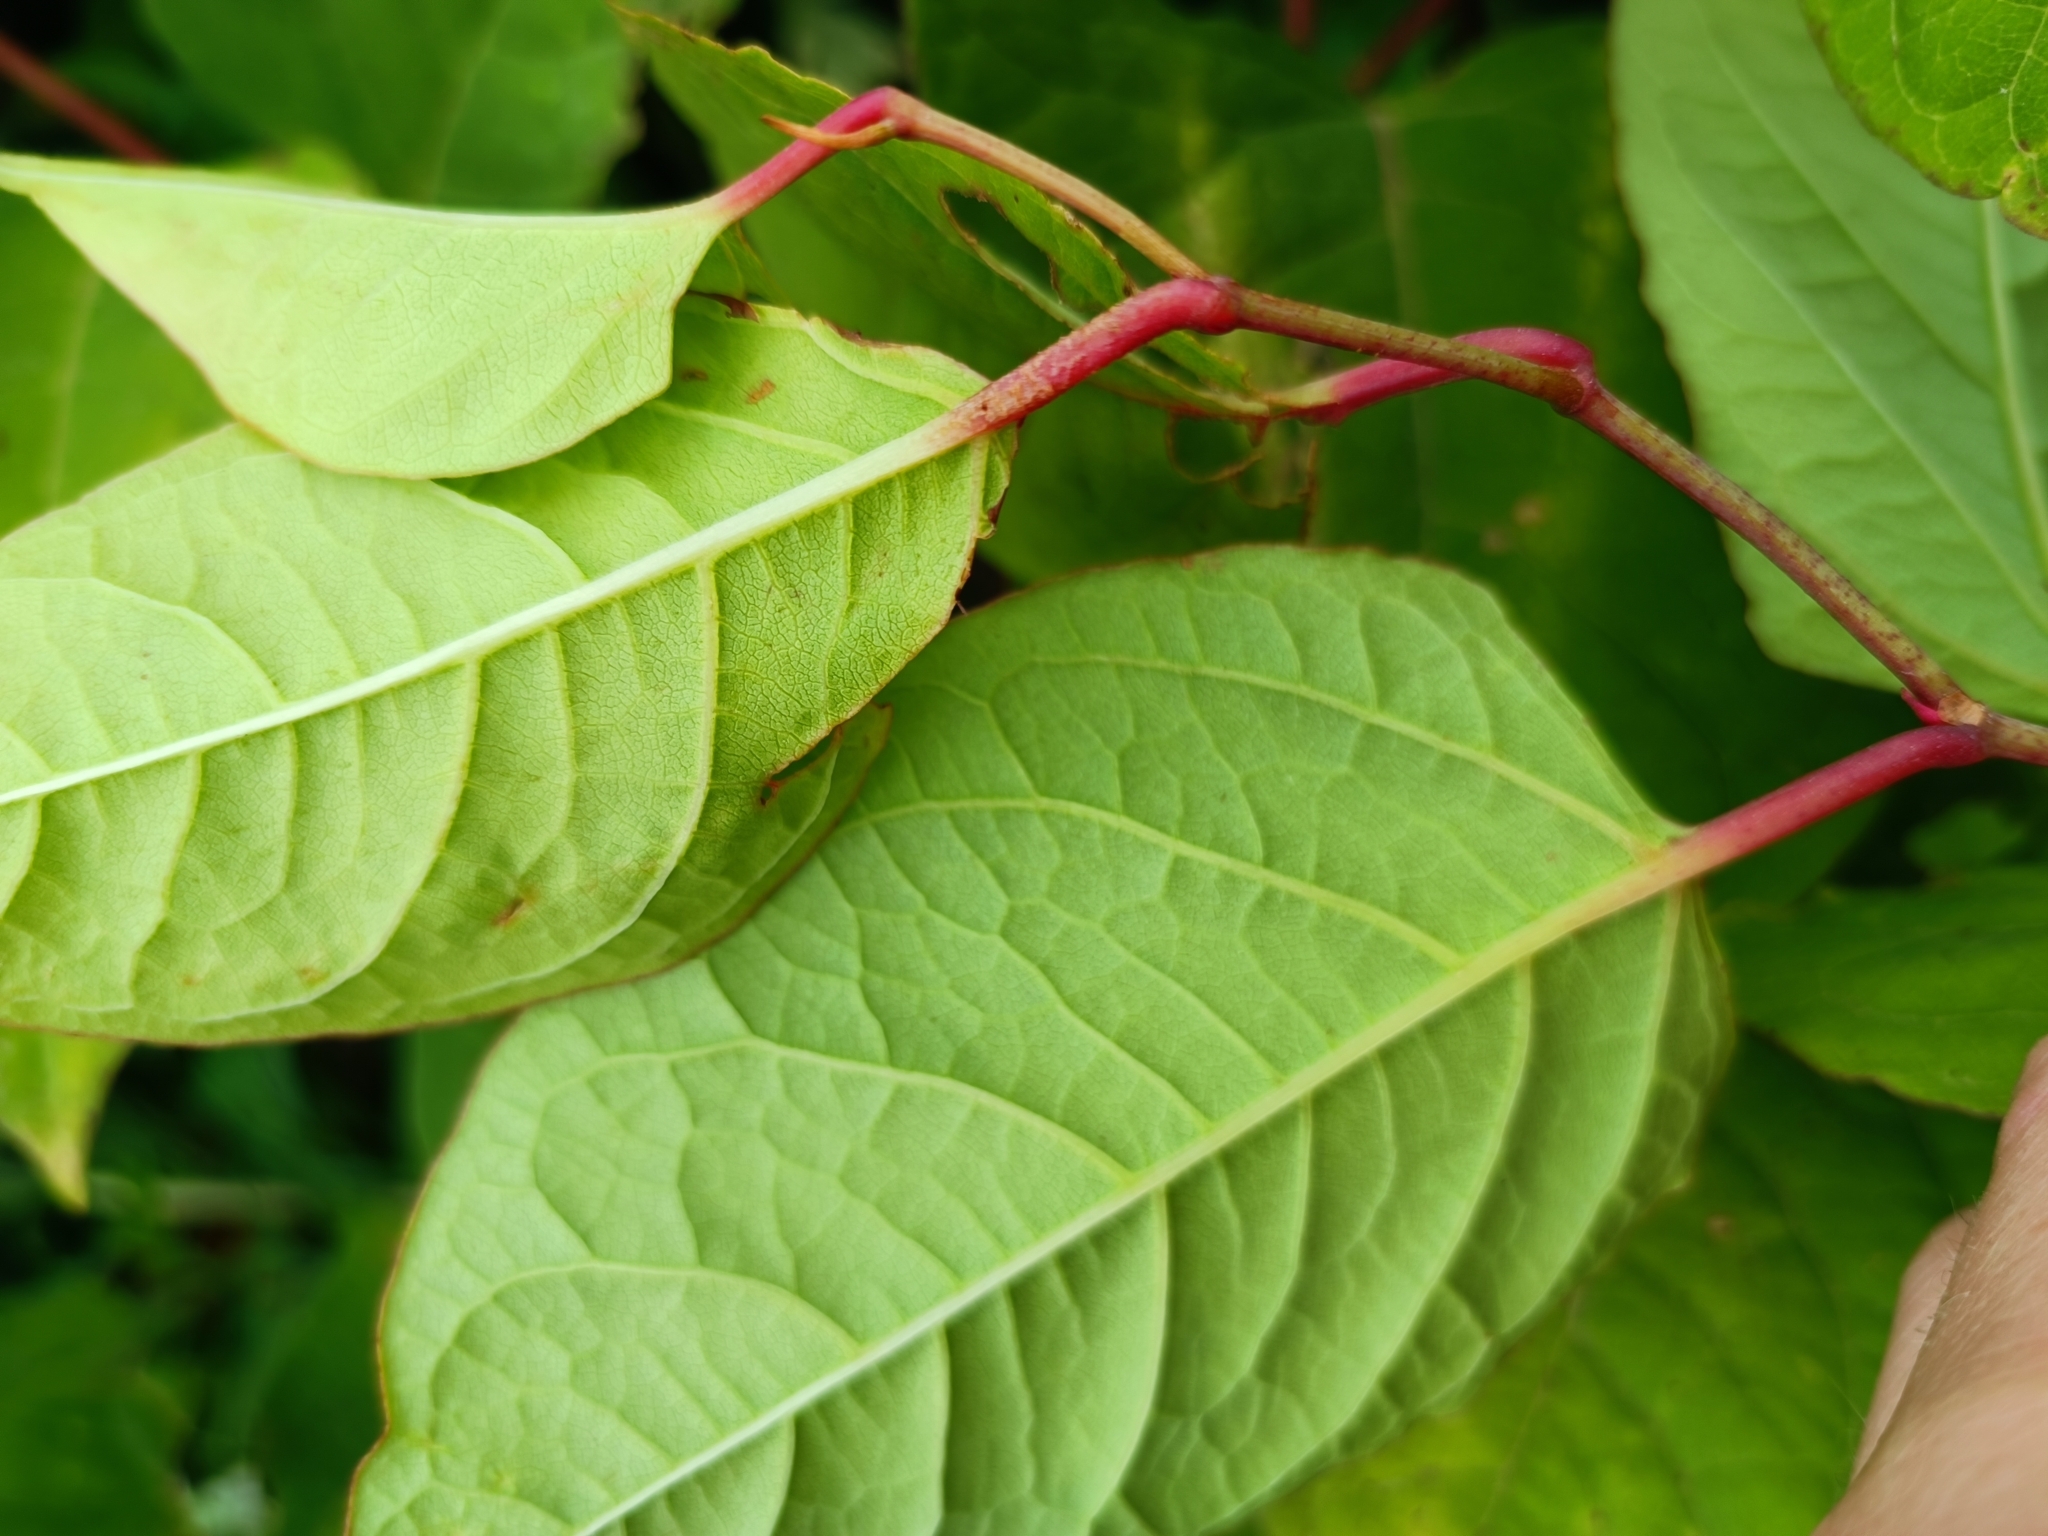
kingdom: Plantae
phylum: Tracheophyta
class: Magnoliopsida
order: Caryophyllales
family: Polygonaceae
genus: Reynoutria
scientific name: Reynoutria japonica
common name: Japanese knotweed
